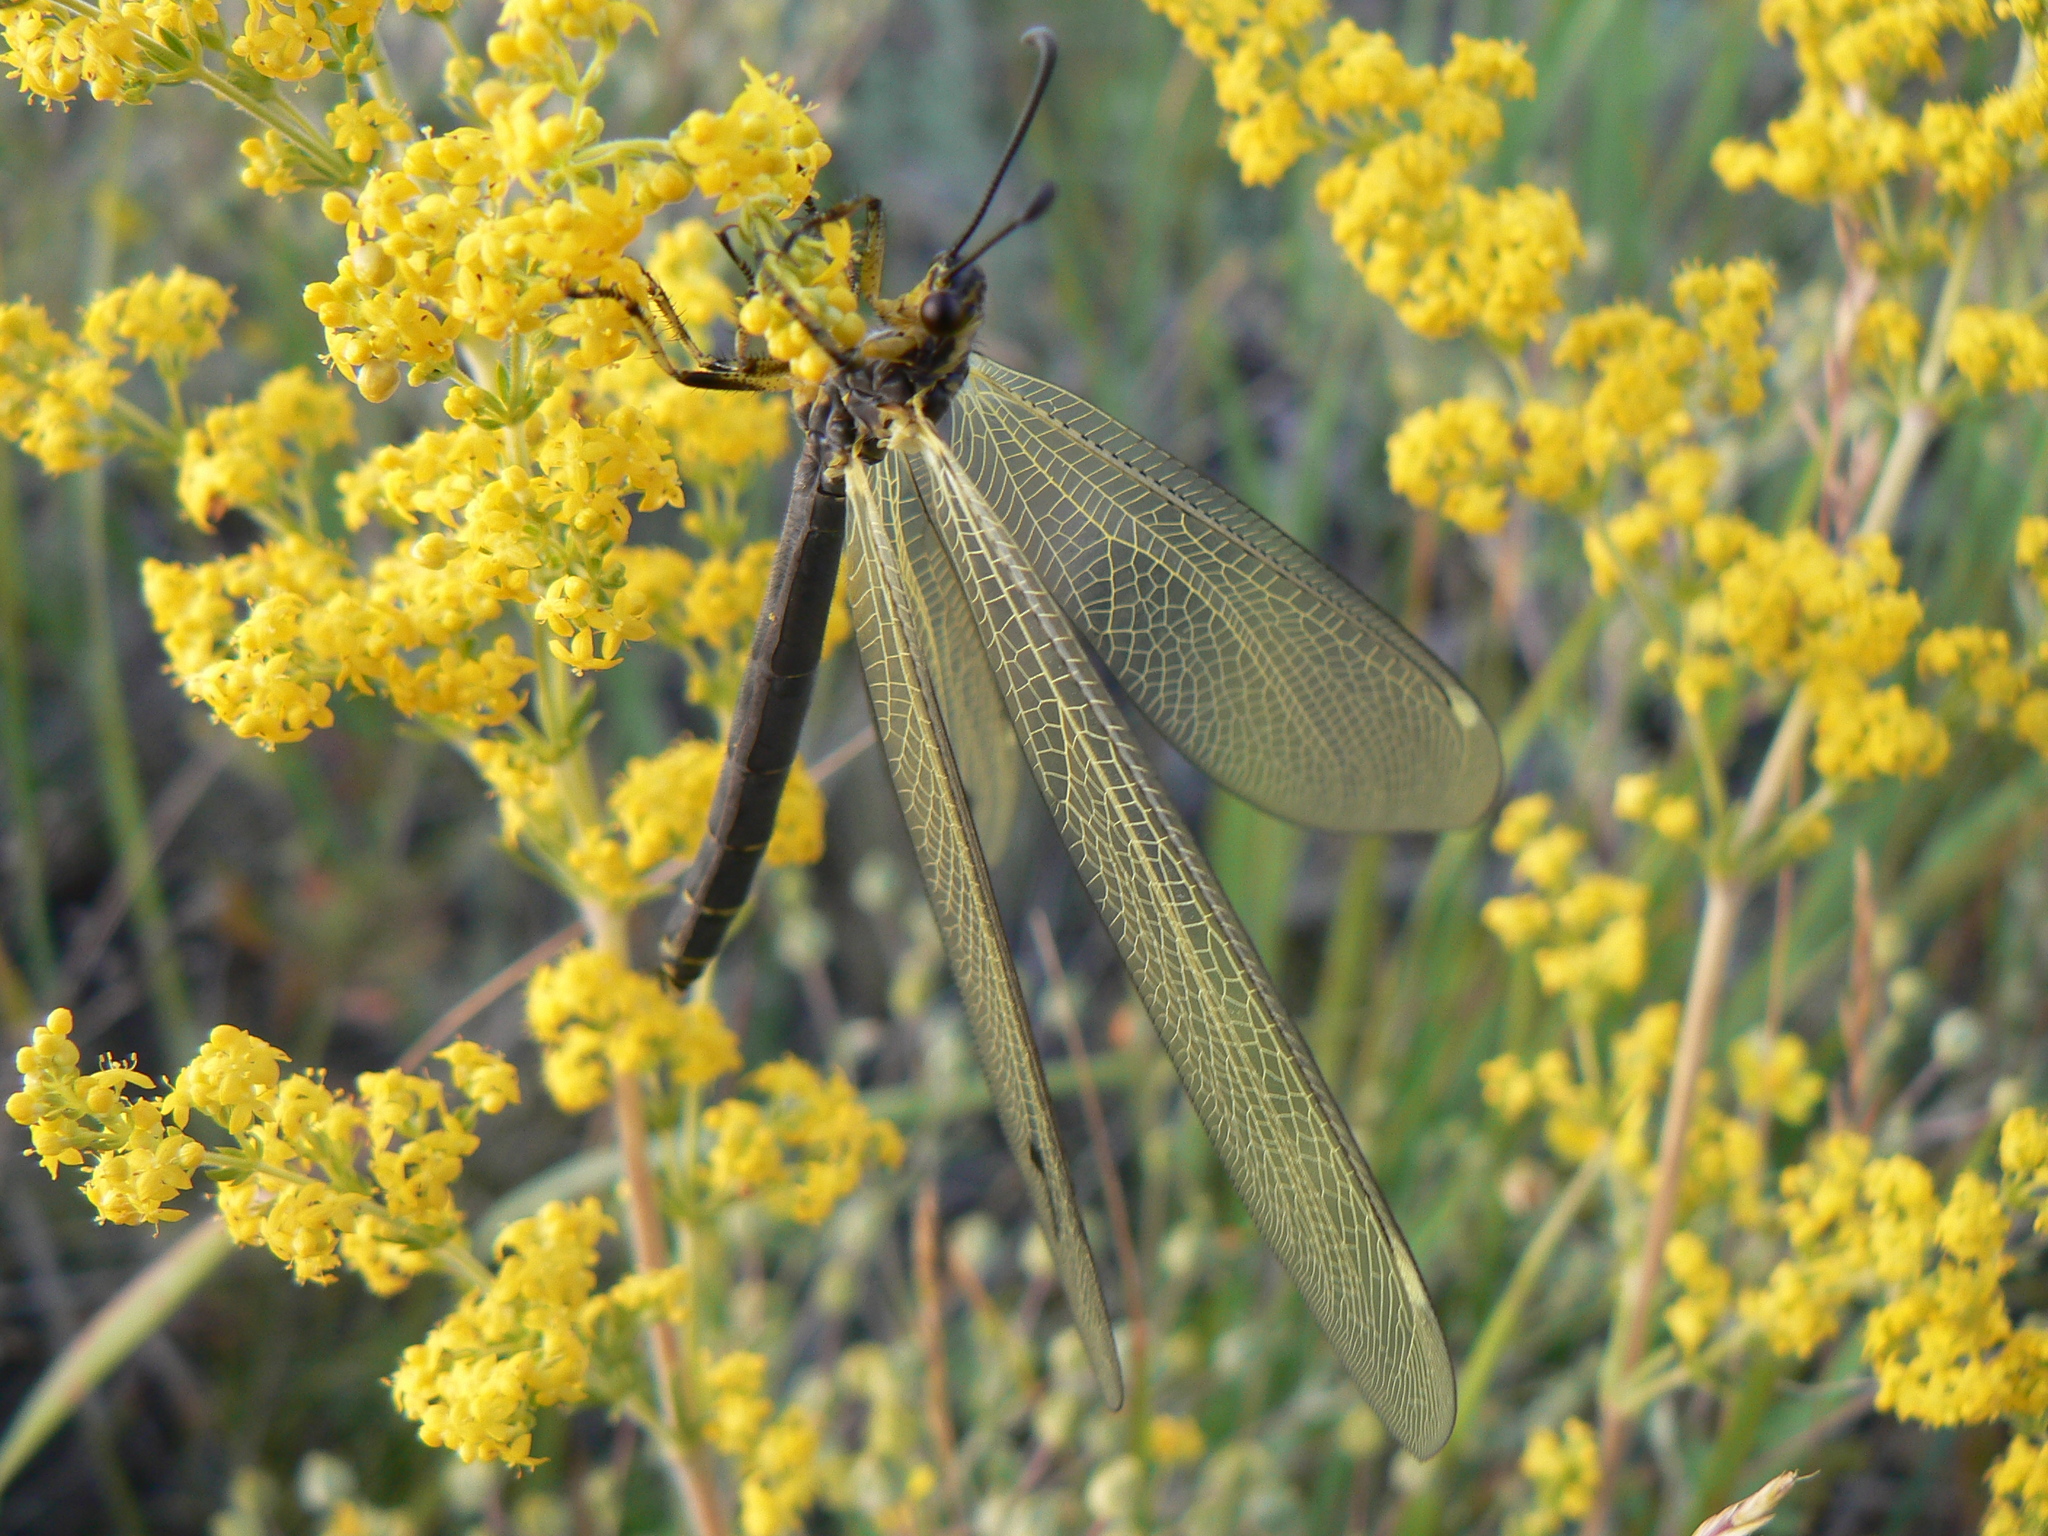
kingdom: Animalia
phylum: Arthropoda
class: Insecta
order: Neuroptera
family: Myrmeleontidae
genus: Deutoleon
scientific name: Deutoleon lineatus
